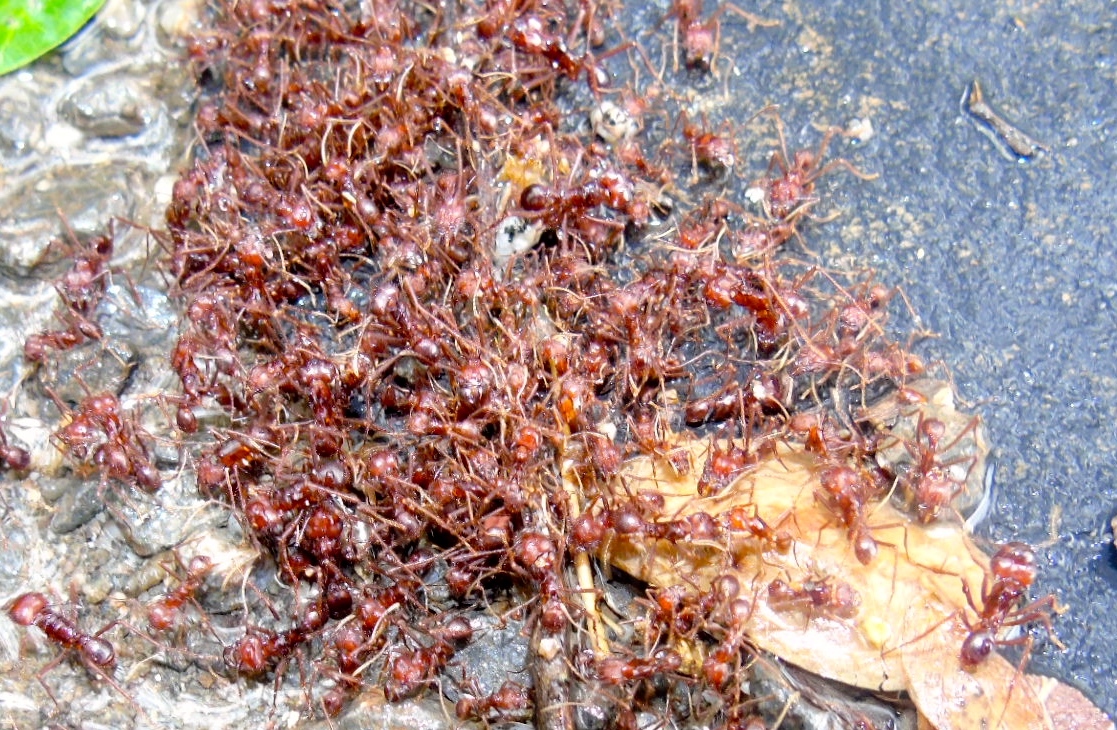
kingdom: Animalia
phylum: Arthropoda
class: Insecta
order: Hymenoptera
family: Formicidae
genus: Atta
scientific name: Atta mexicana
